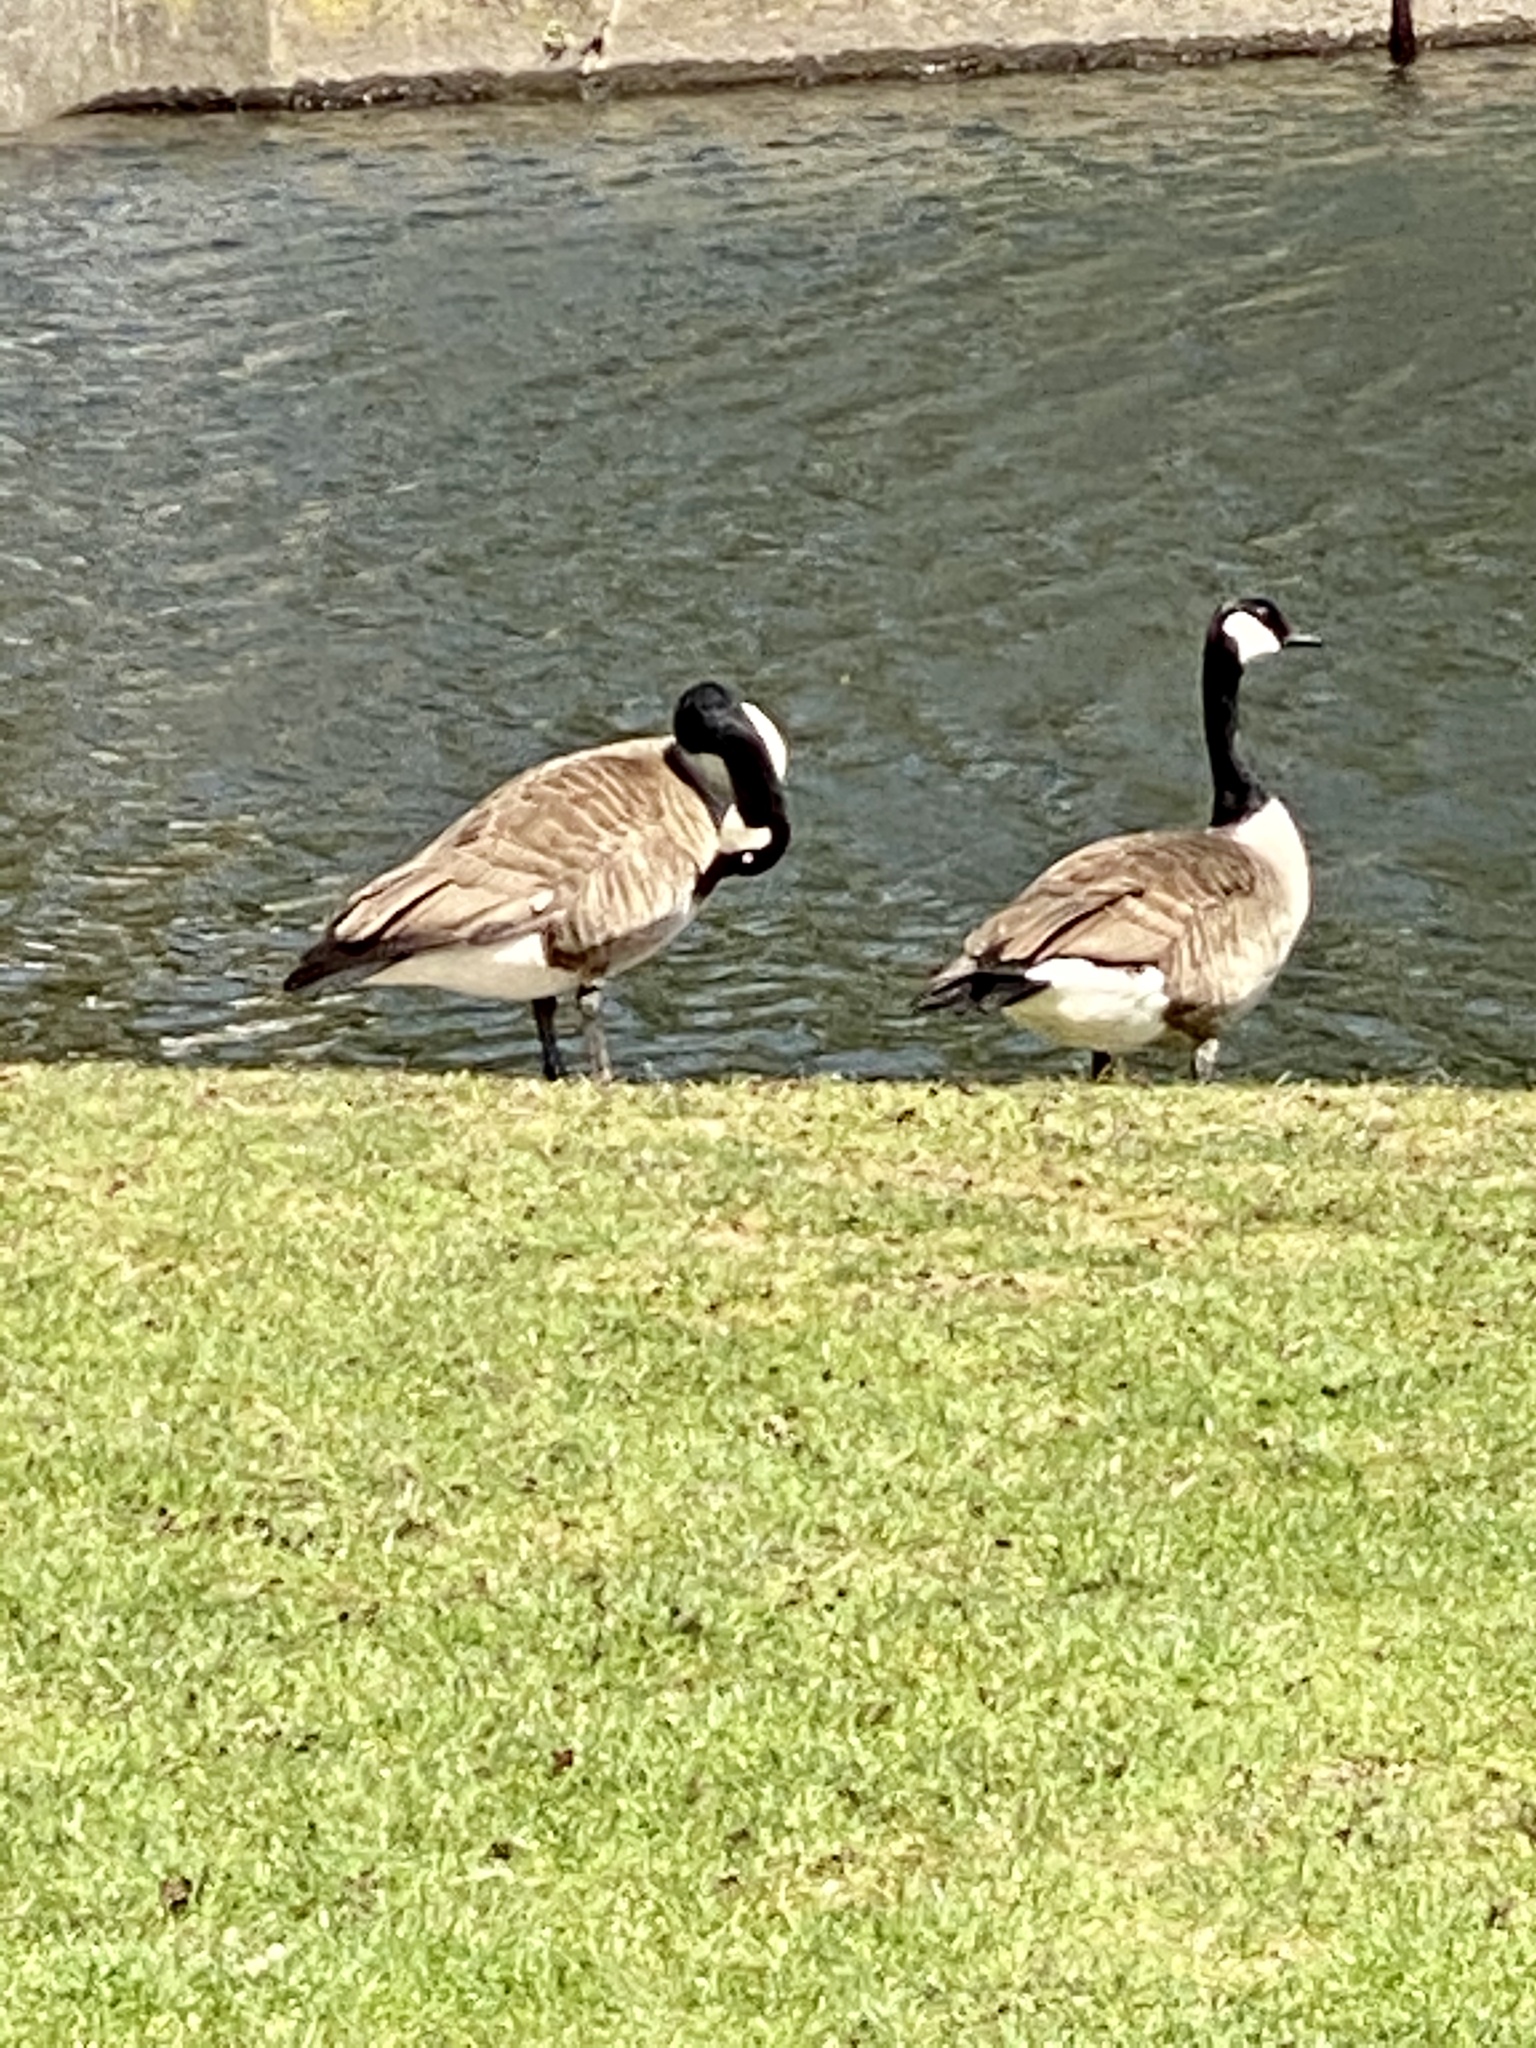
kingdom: Animalia
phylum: Chordata
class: Aves
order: Anseriformes
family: Anatidae
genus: Branta
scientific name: Branta canadensis
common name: Canada goose
